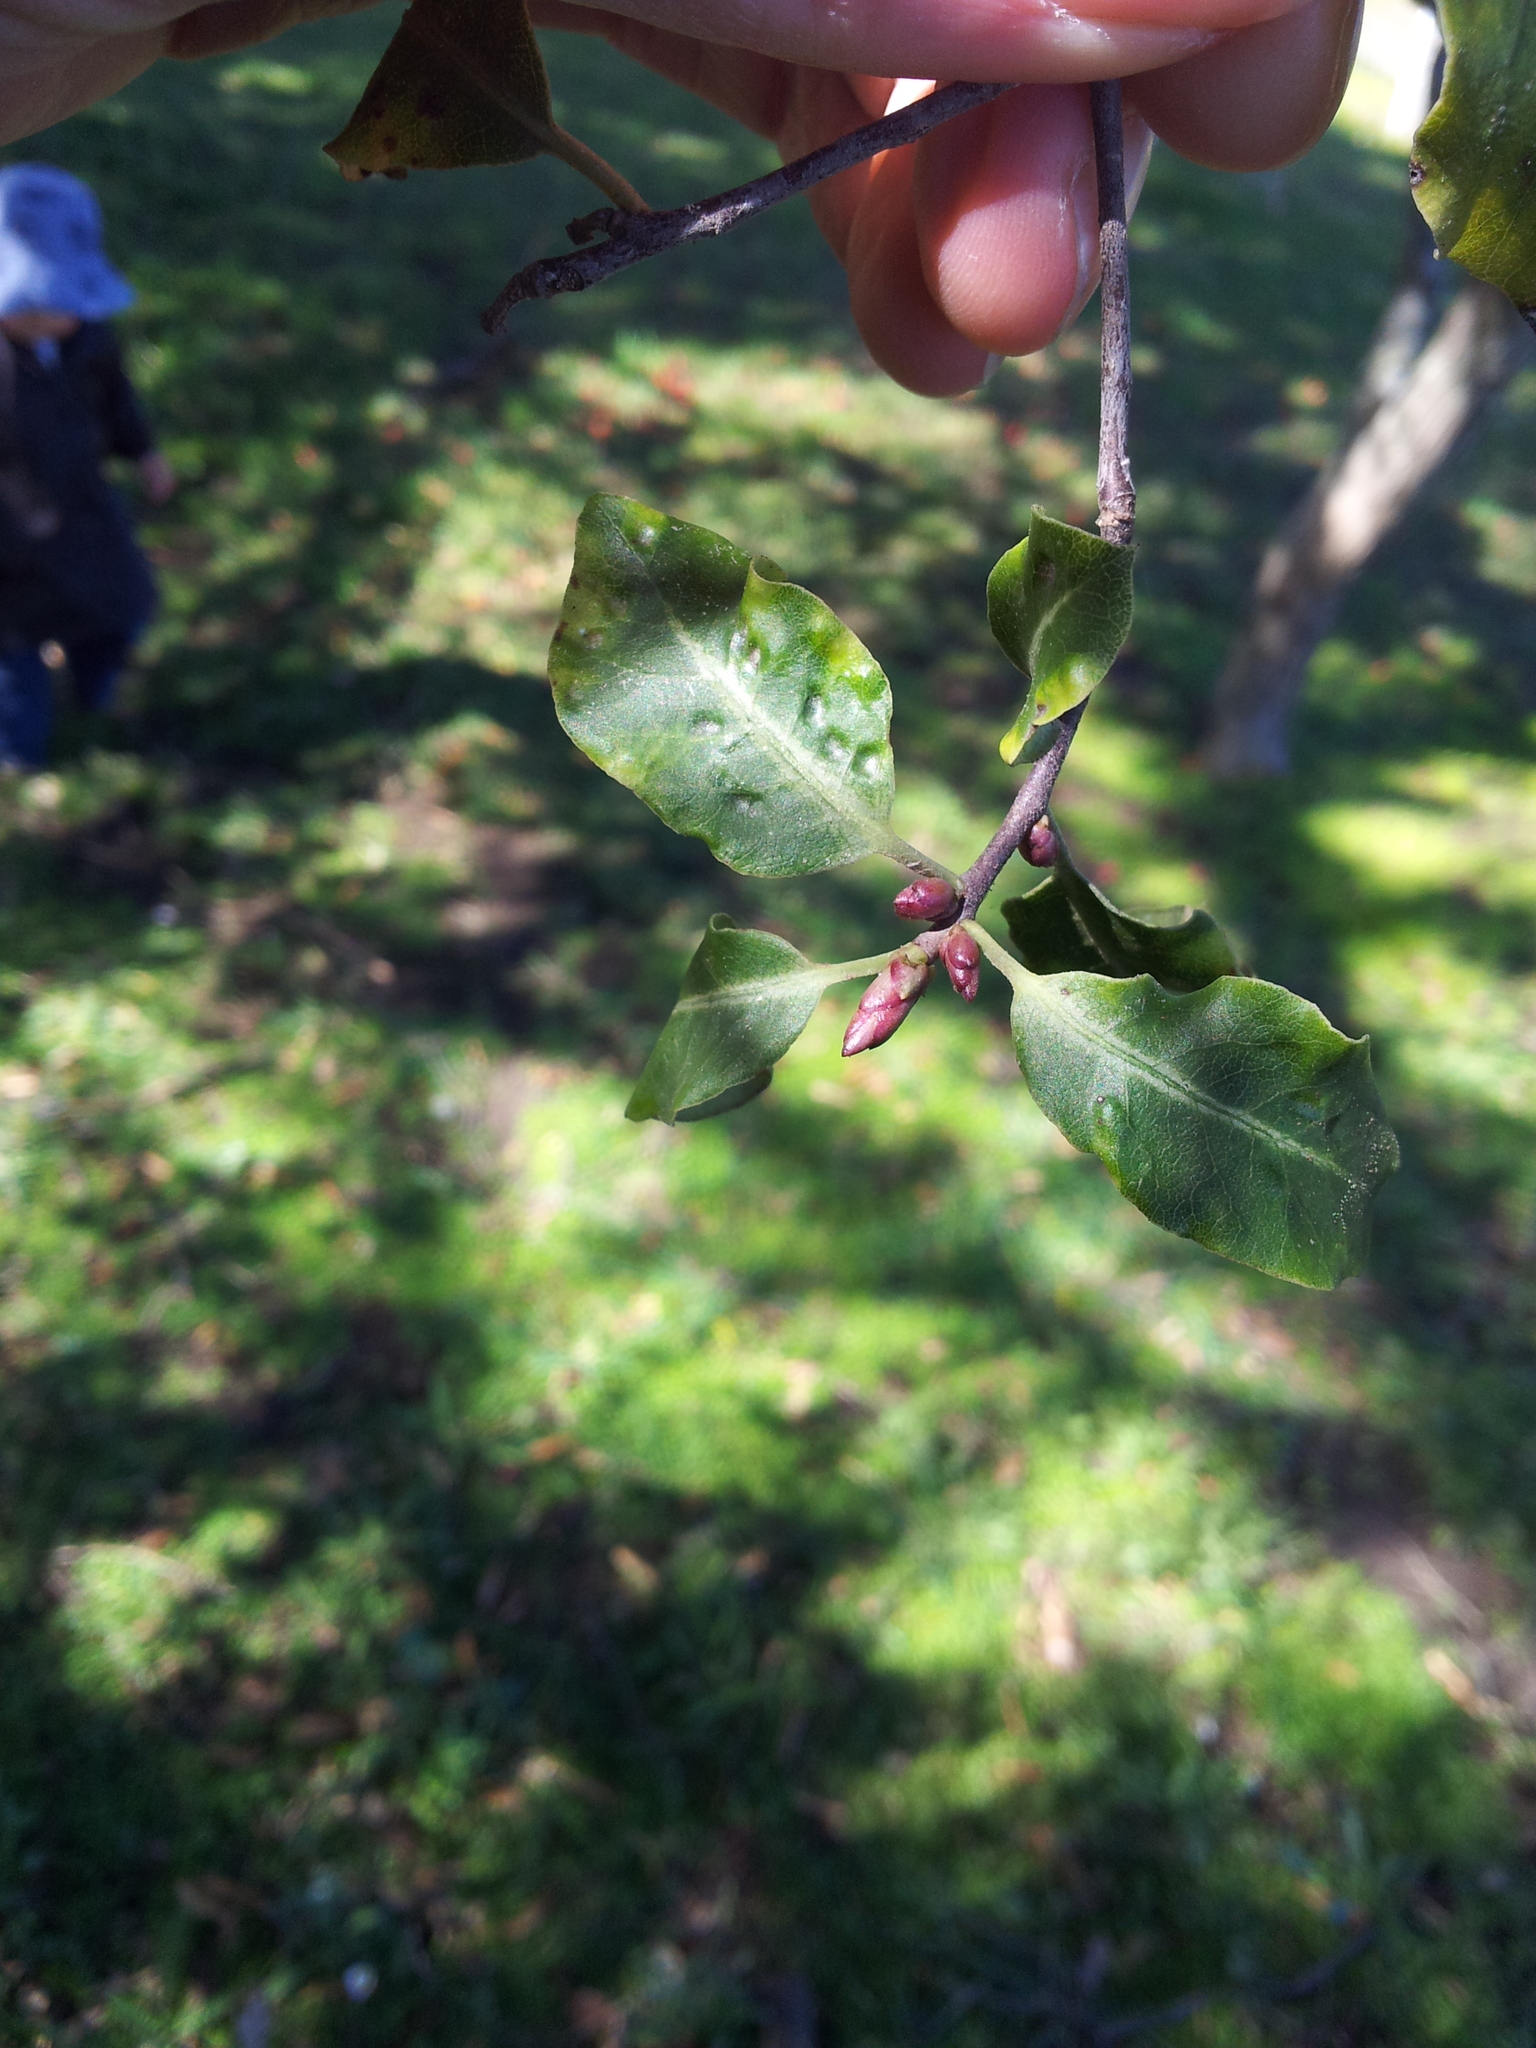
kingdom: Plantae
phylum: Tracheophyta
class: Magnoliopsida
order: Apiales
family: Pittosporaceae
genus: Pittosporum
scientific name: Pittosporum tenuifolium
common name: Kohuhu
